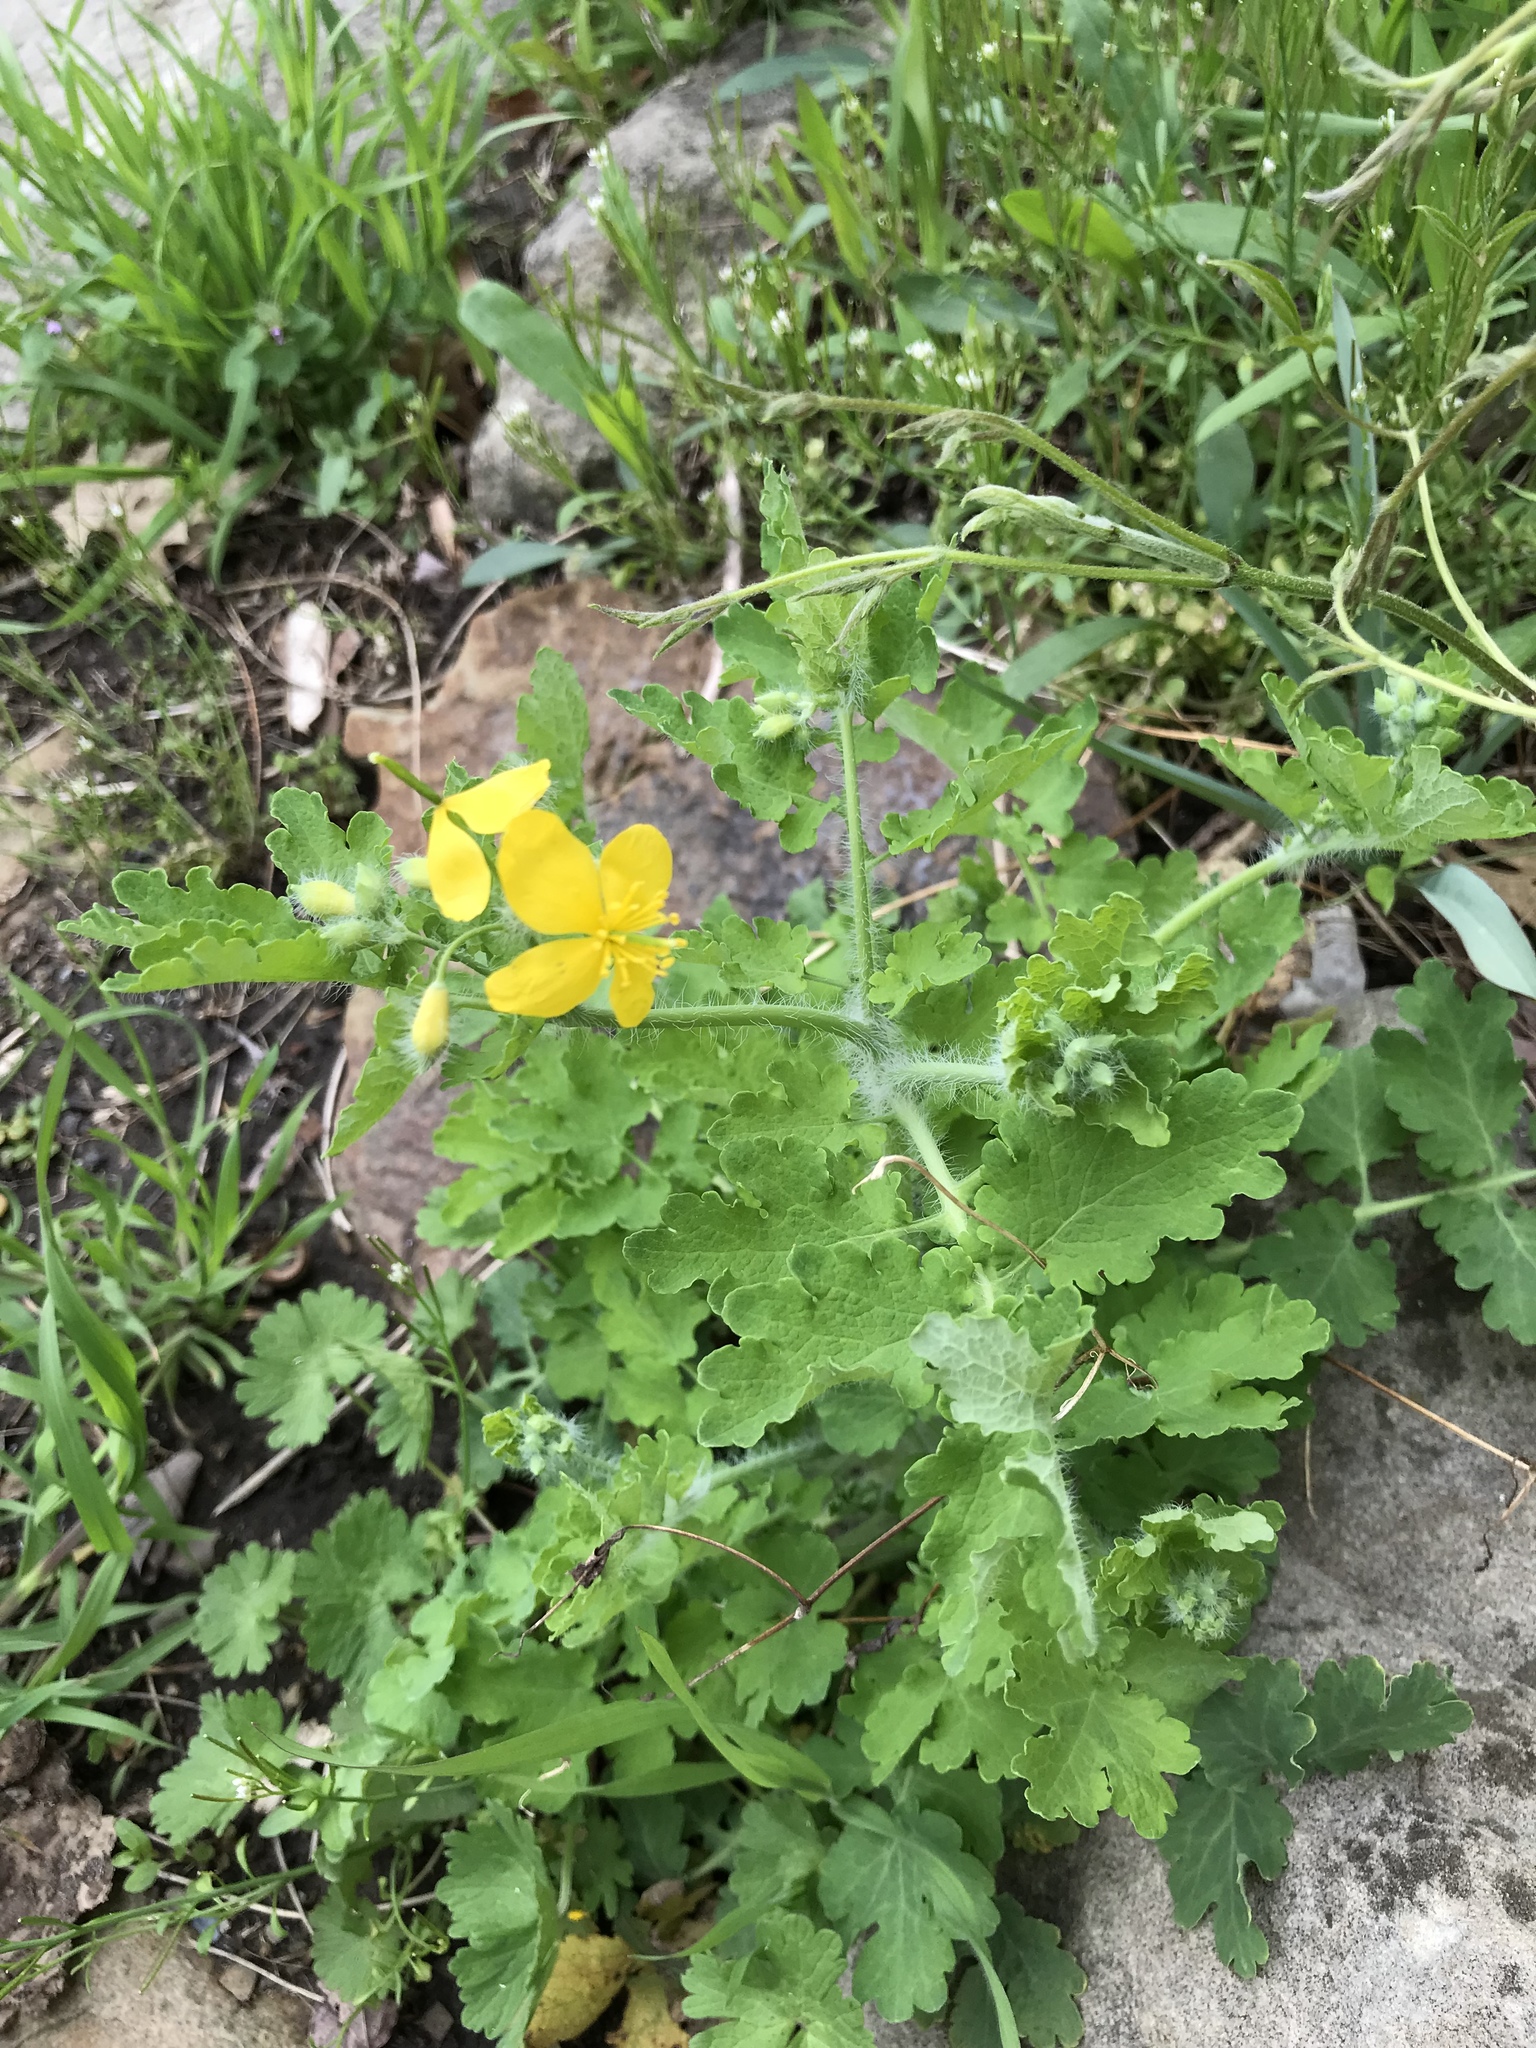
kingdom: Plantae
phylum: Tracheophyta
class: Magnoliopsida
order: Ranunculales
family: Papaveraceae
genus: Chelidonium
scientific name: Chelidonium majus
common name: Greater celandine
